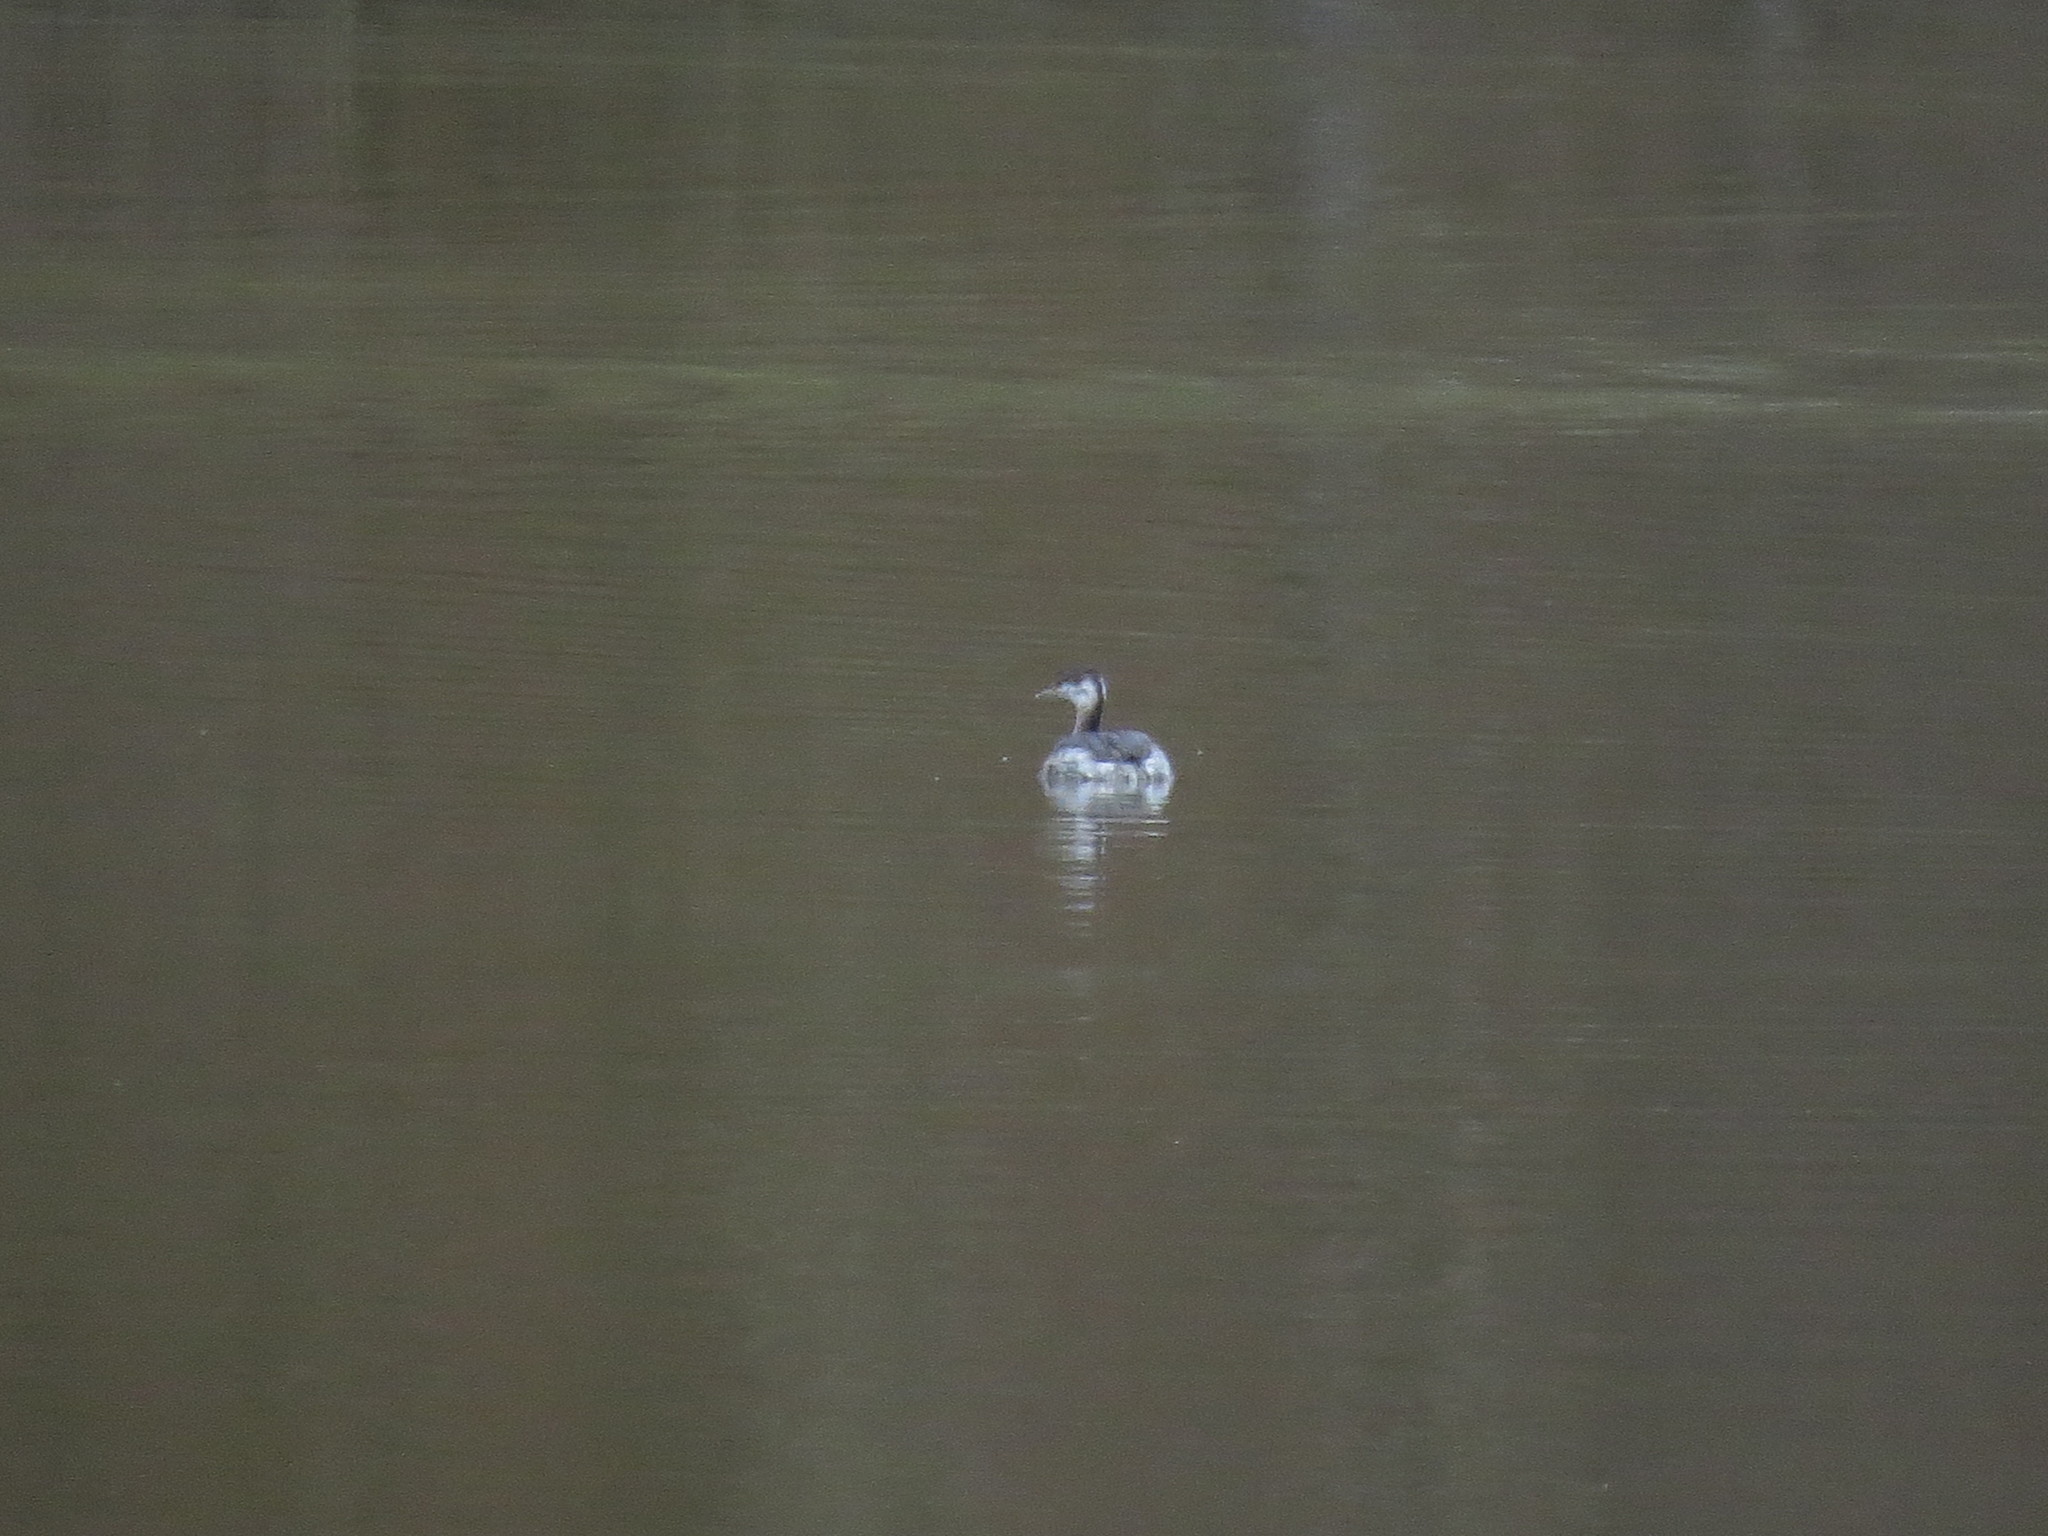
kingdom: Animalia
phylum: Chordata
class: Aves
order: Podicipediformes
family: Podicipedidae
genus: Podiceps
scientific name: Podiceps auritus
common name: Horned grebe
